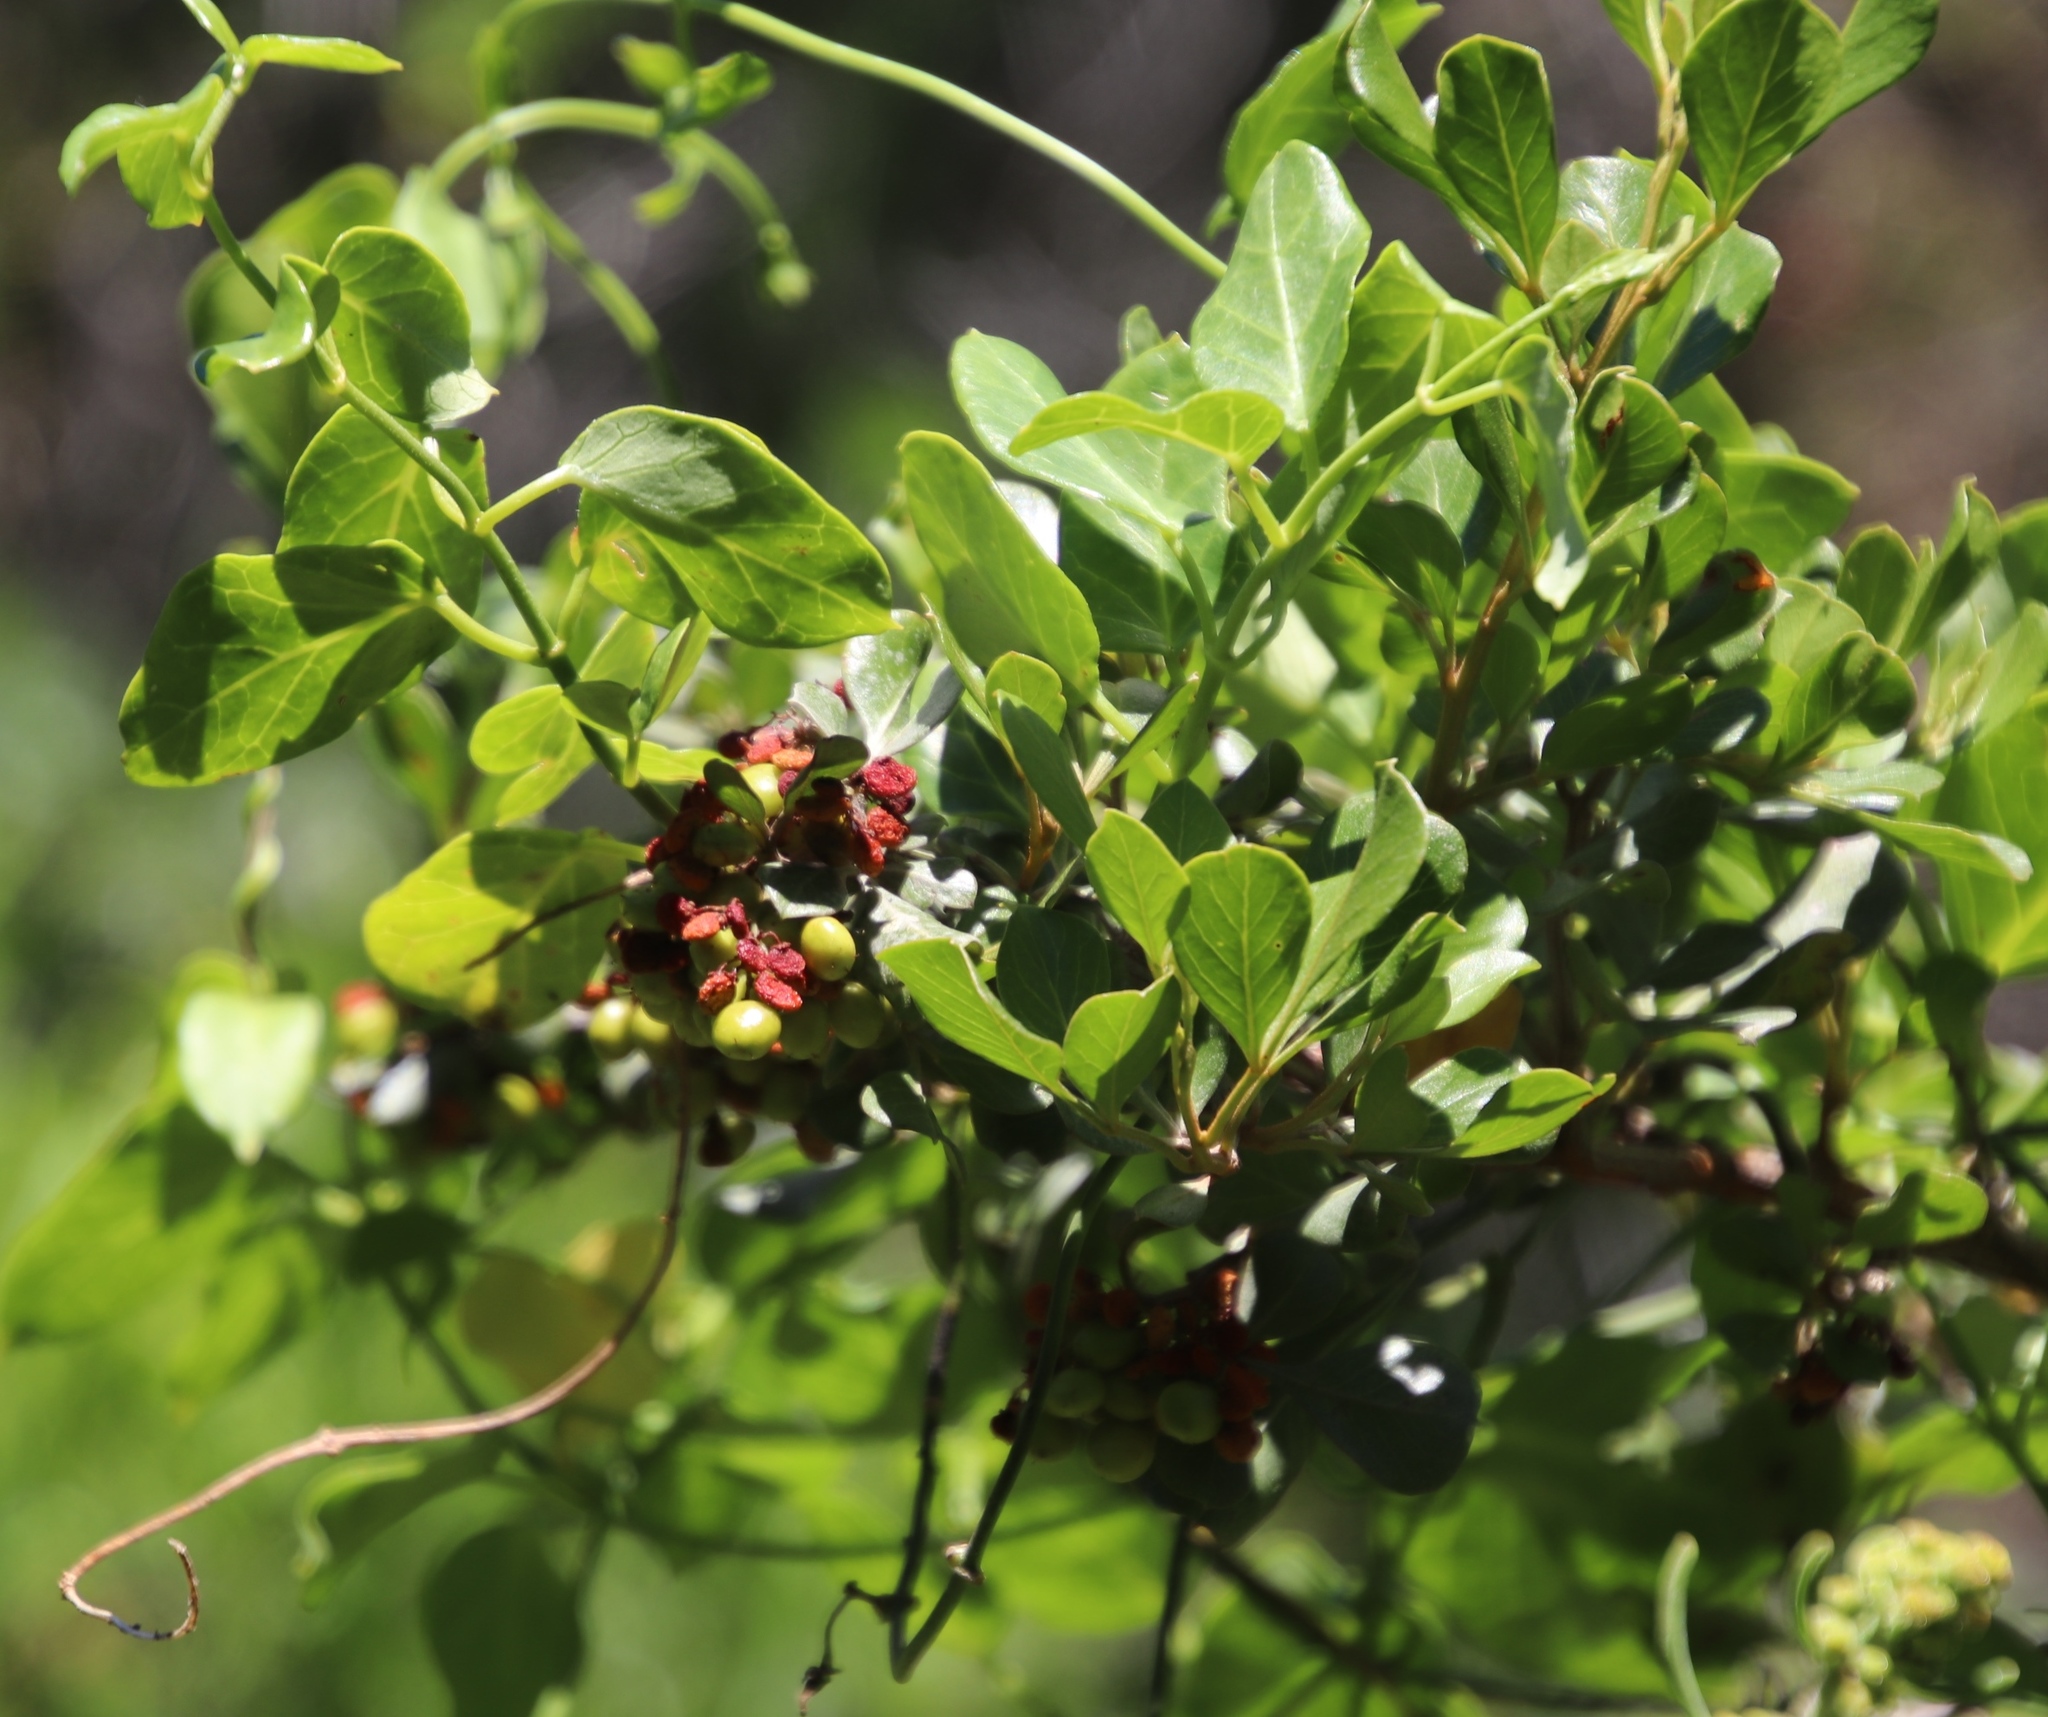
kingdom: Plantae
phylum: Tracheophyta
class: Magnoliopsida
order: Gentianales
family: Apocynaceae
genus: Cynanchum
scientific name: Cynanchum obtusifolium
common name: Monkey-rope
